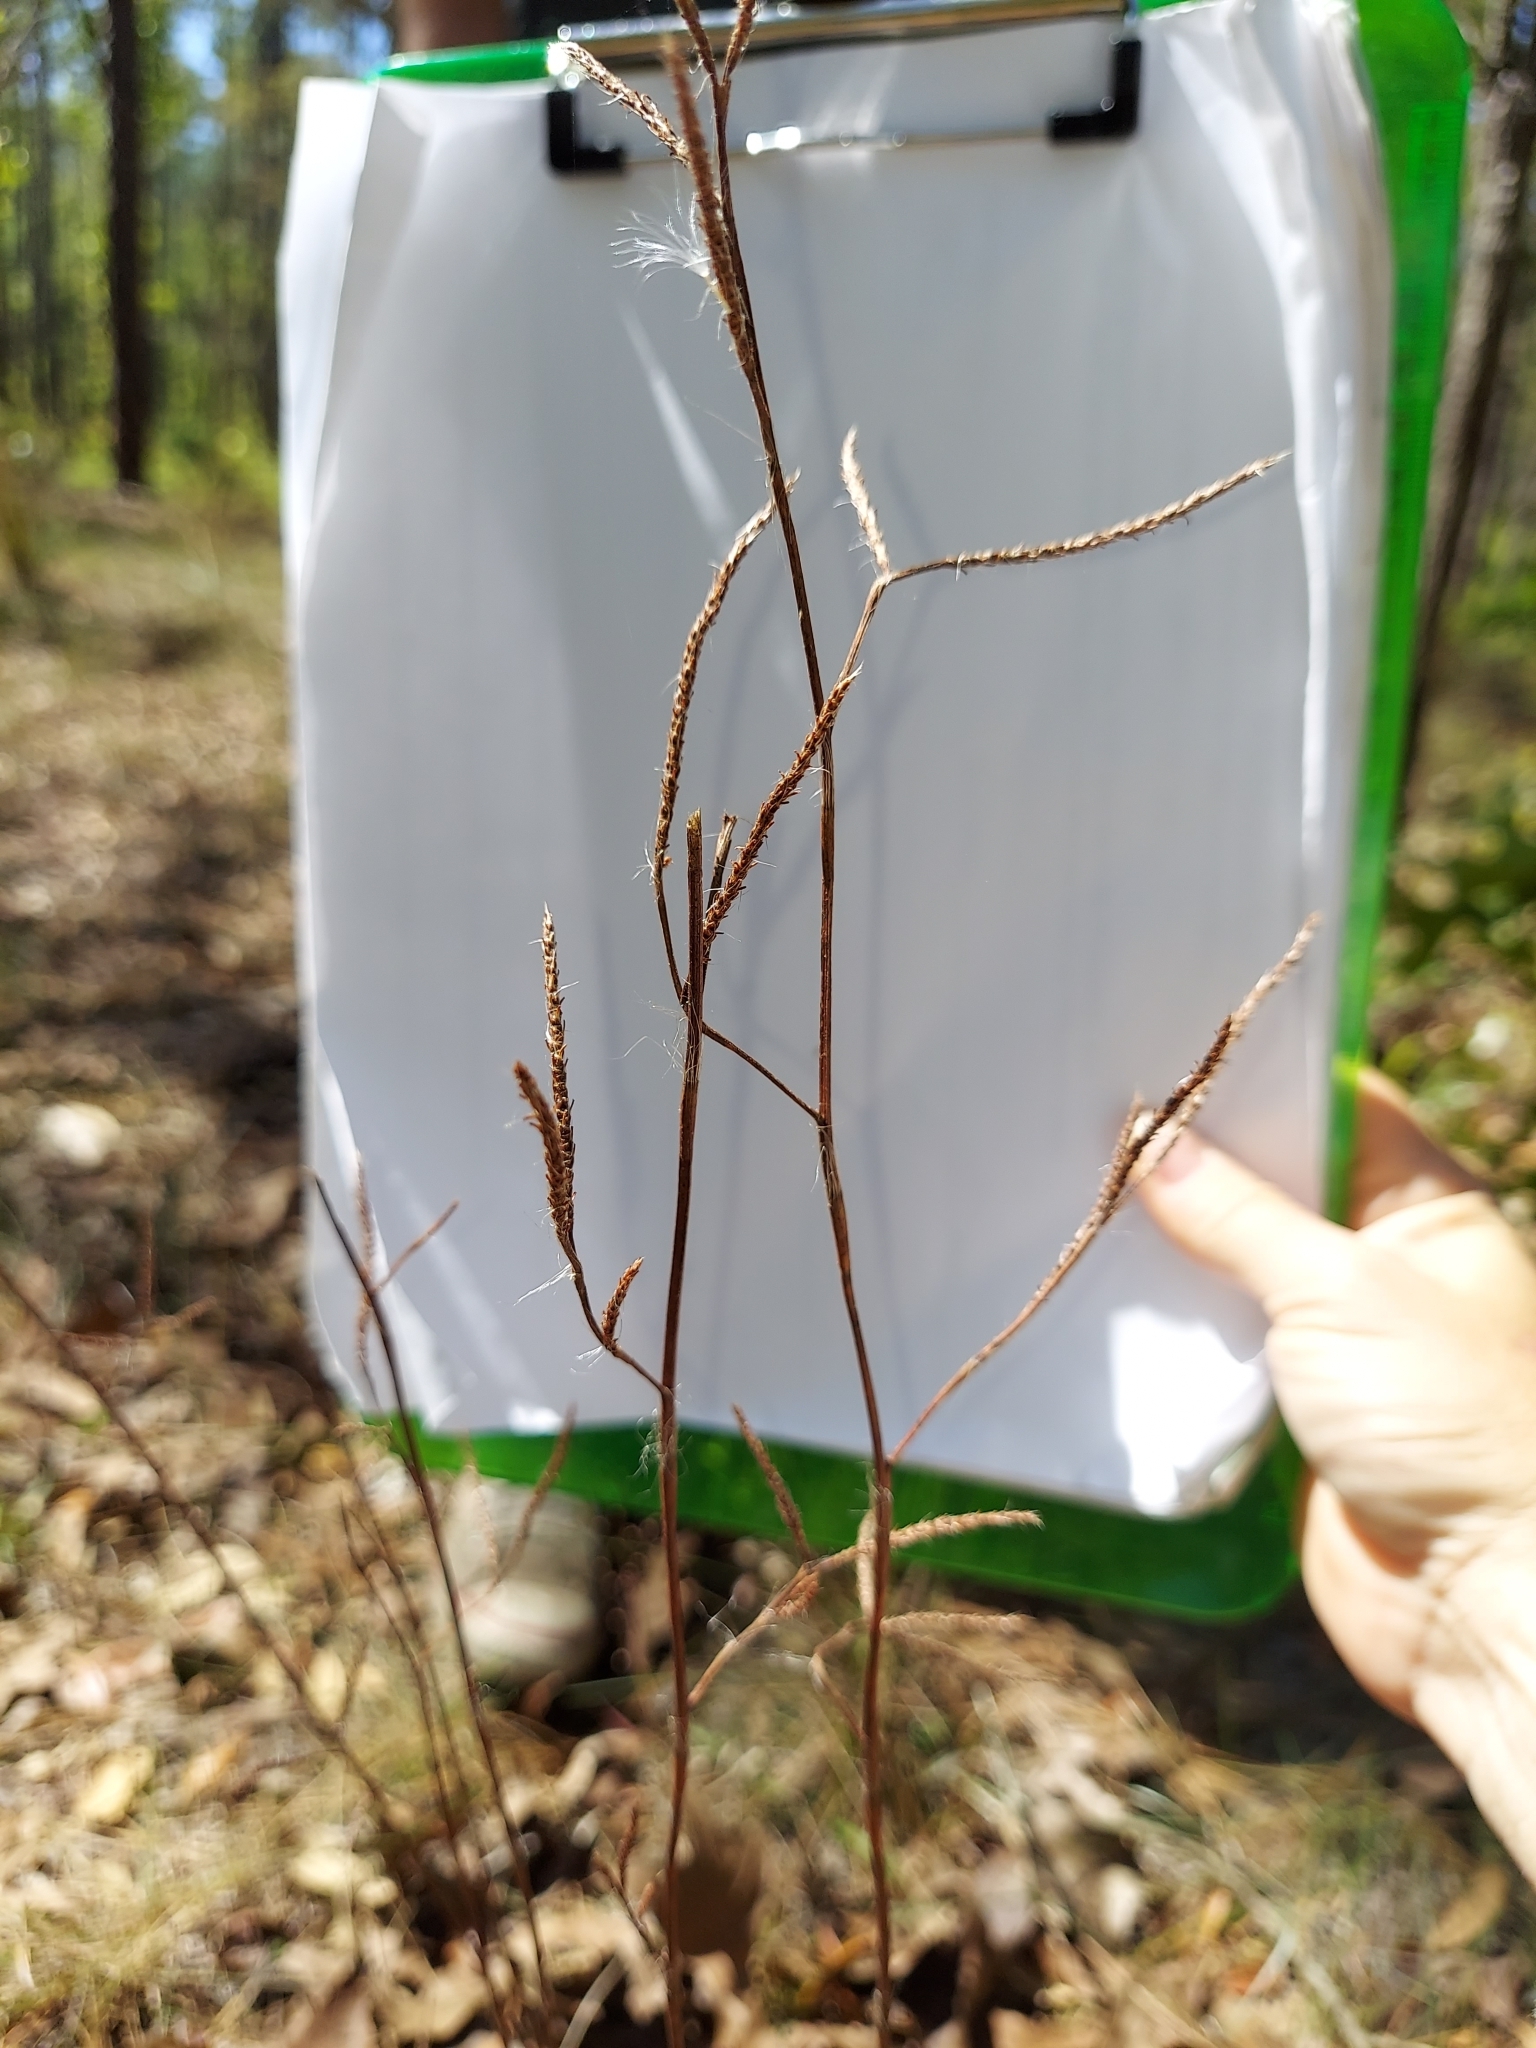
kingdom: Plantae
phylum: Tracheophyta
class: Magnoliopsida
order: Caryophyllales
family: Polygonaceae
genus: Polygonella
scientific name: Polygonella robusta
